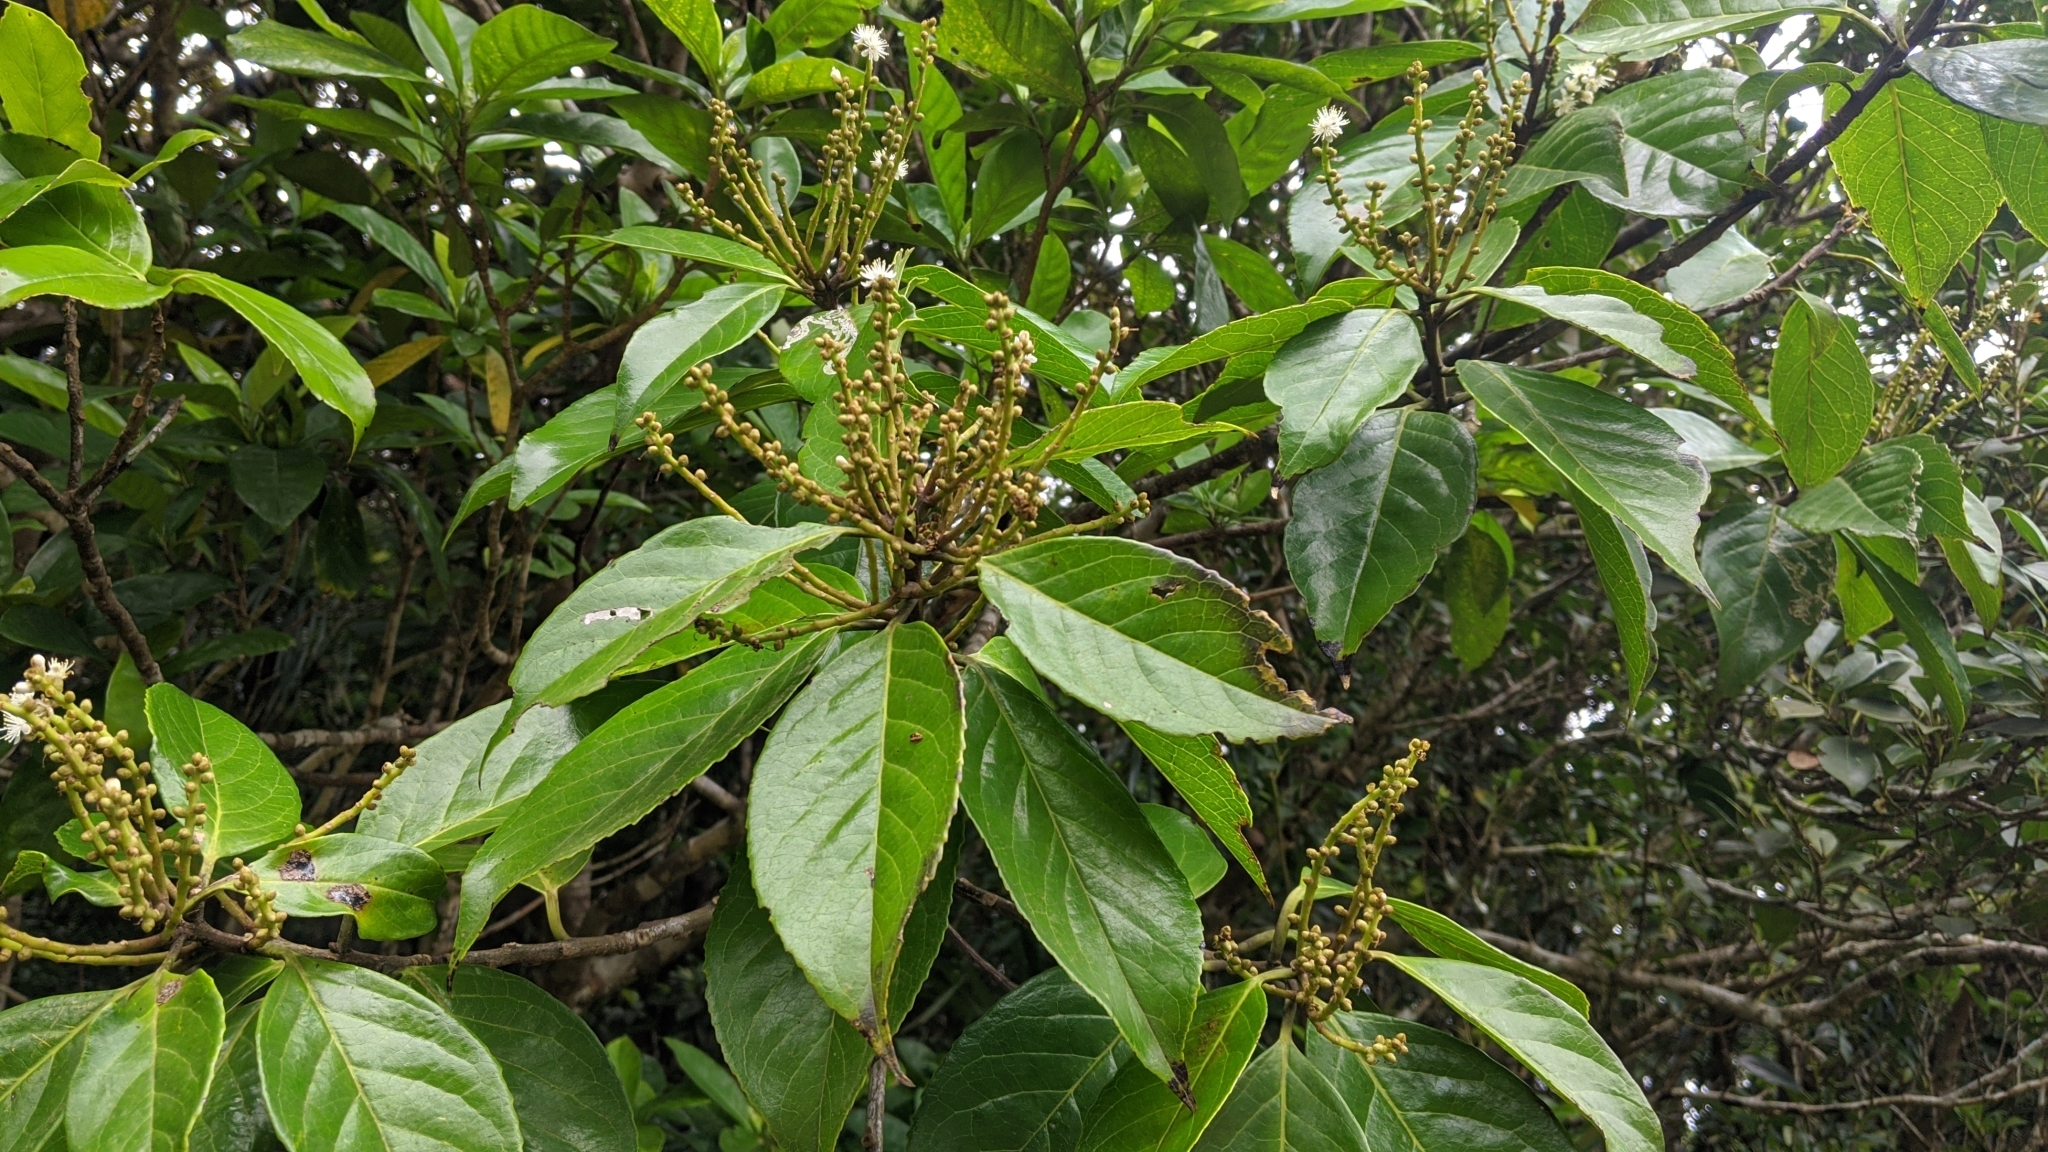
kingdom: Plantae
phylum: Tracheophyta
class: Magnoliopsida
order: Ericales
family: Symplocaceae
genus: Symplocos
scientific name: Symplocos cochinchinensis
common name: Buff hazelwood
